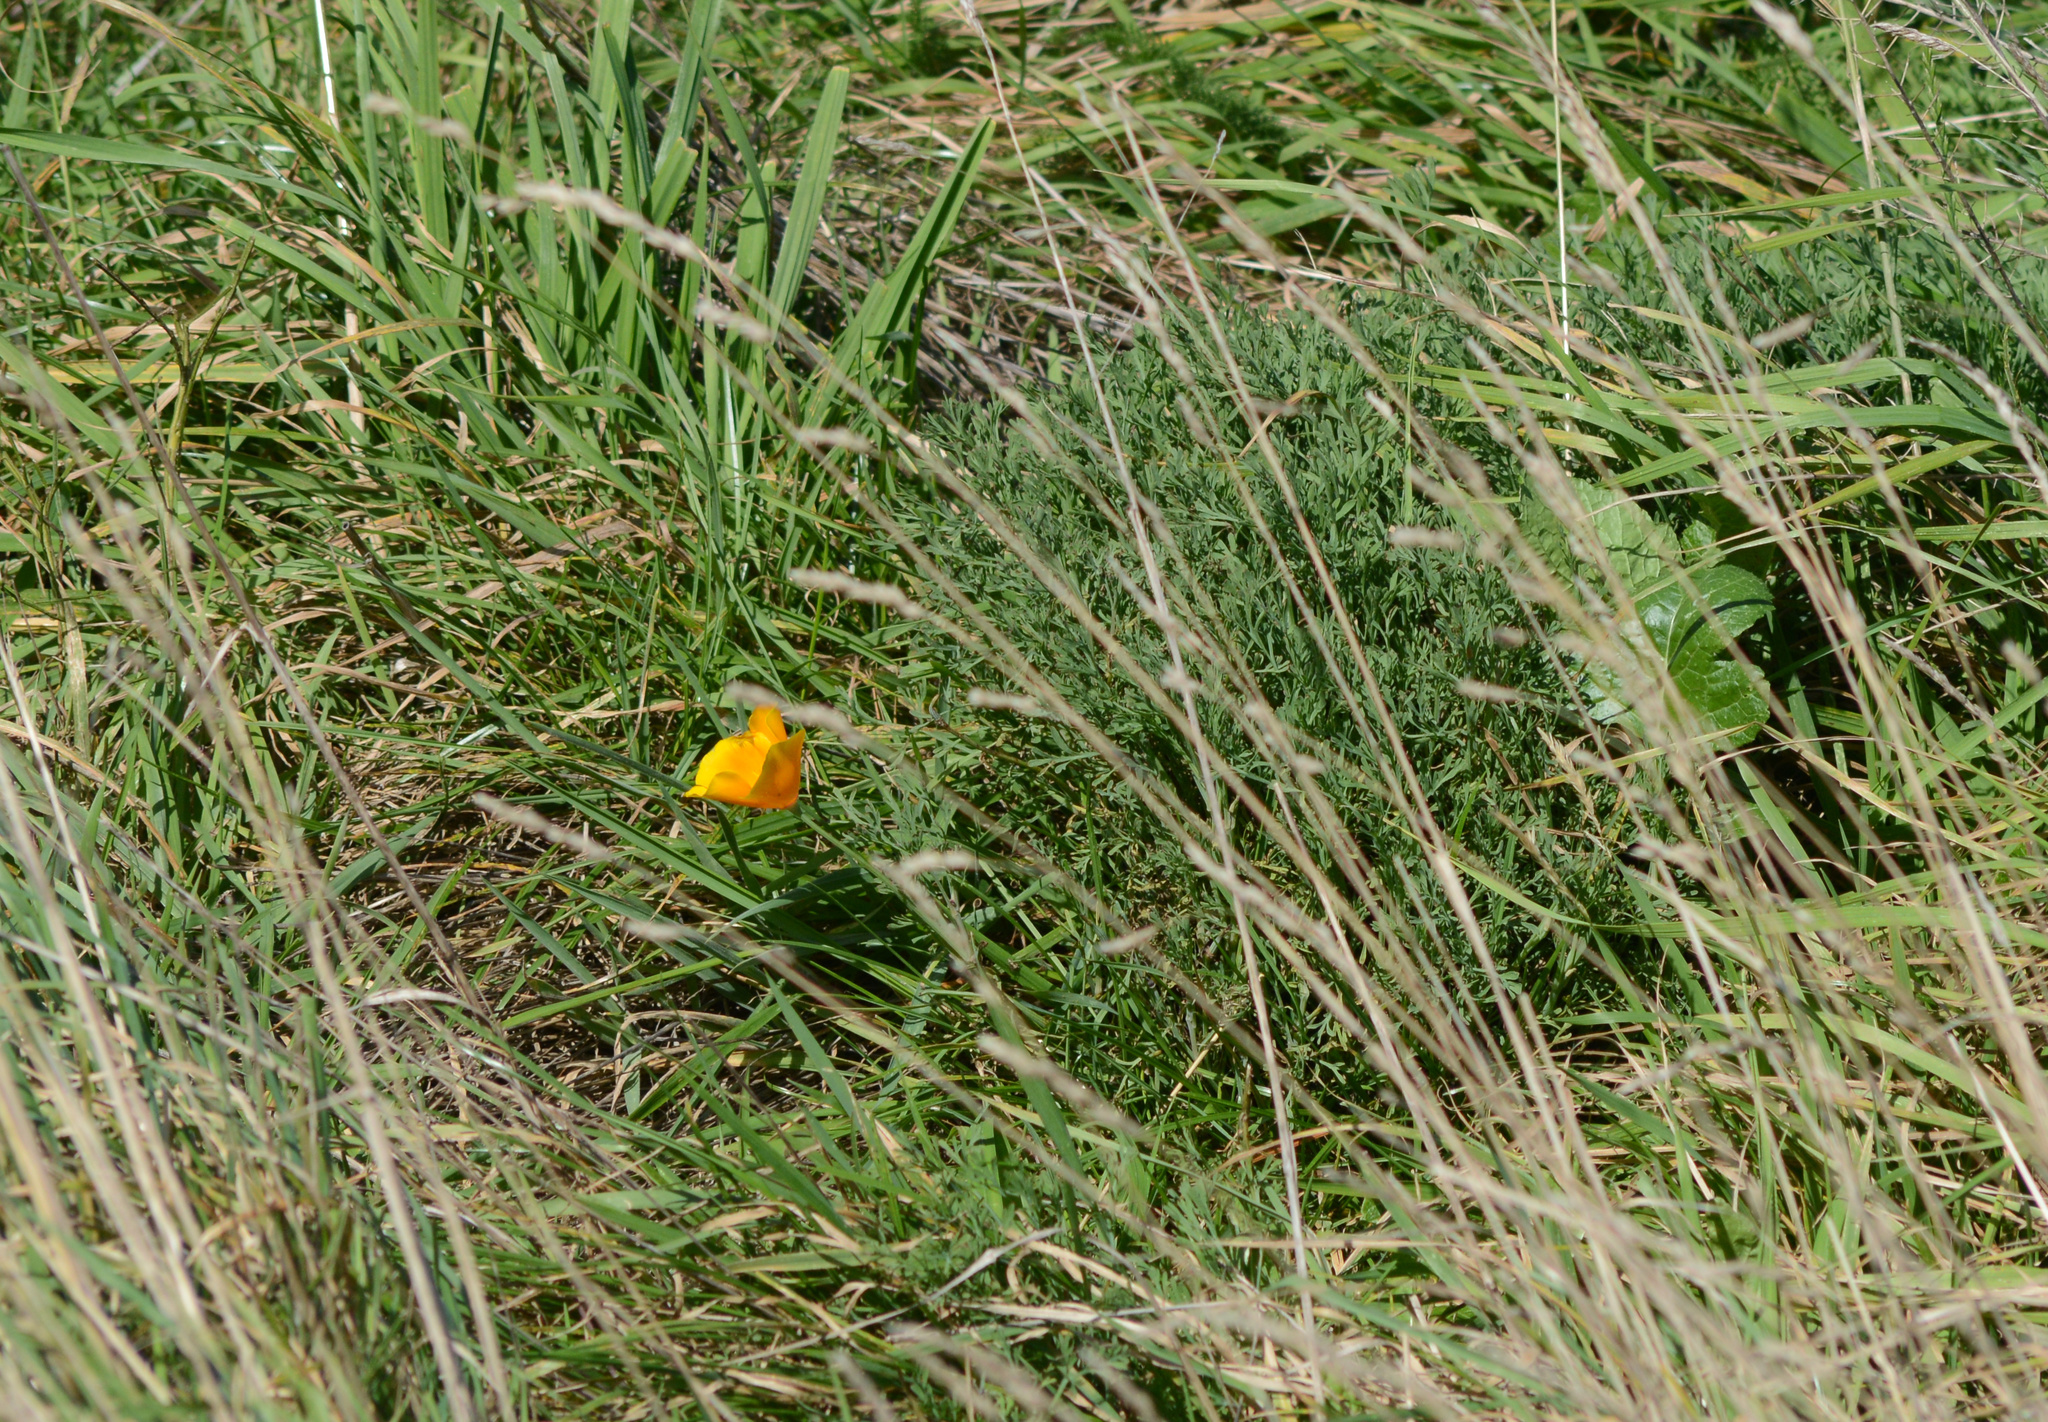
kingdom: Plantae
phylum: Tracheophyta
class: Magnoliopsida
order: Ranunculales
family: Papaveraceae
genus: Eschscholzia
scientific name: Eschscholzia californica
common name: California poppy
